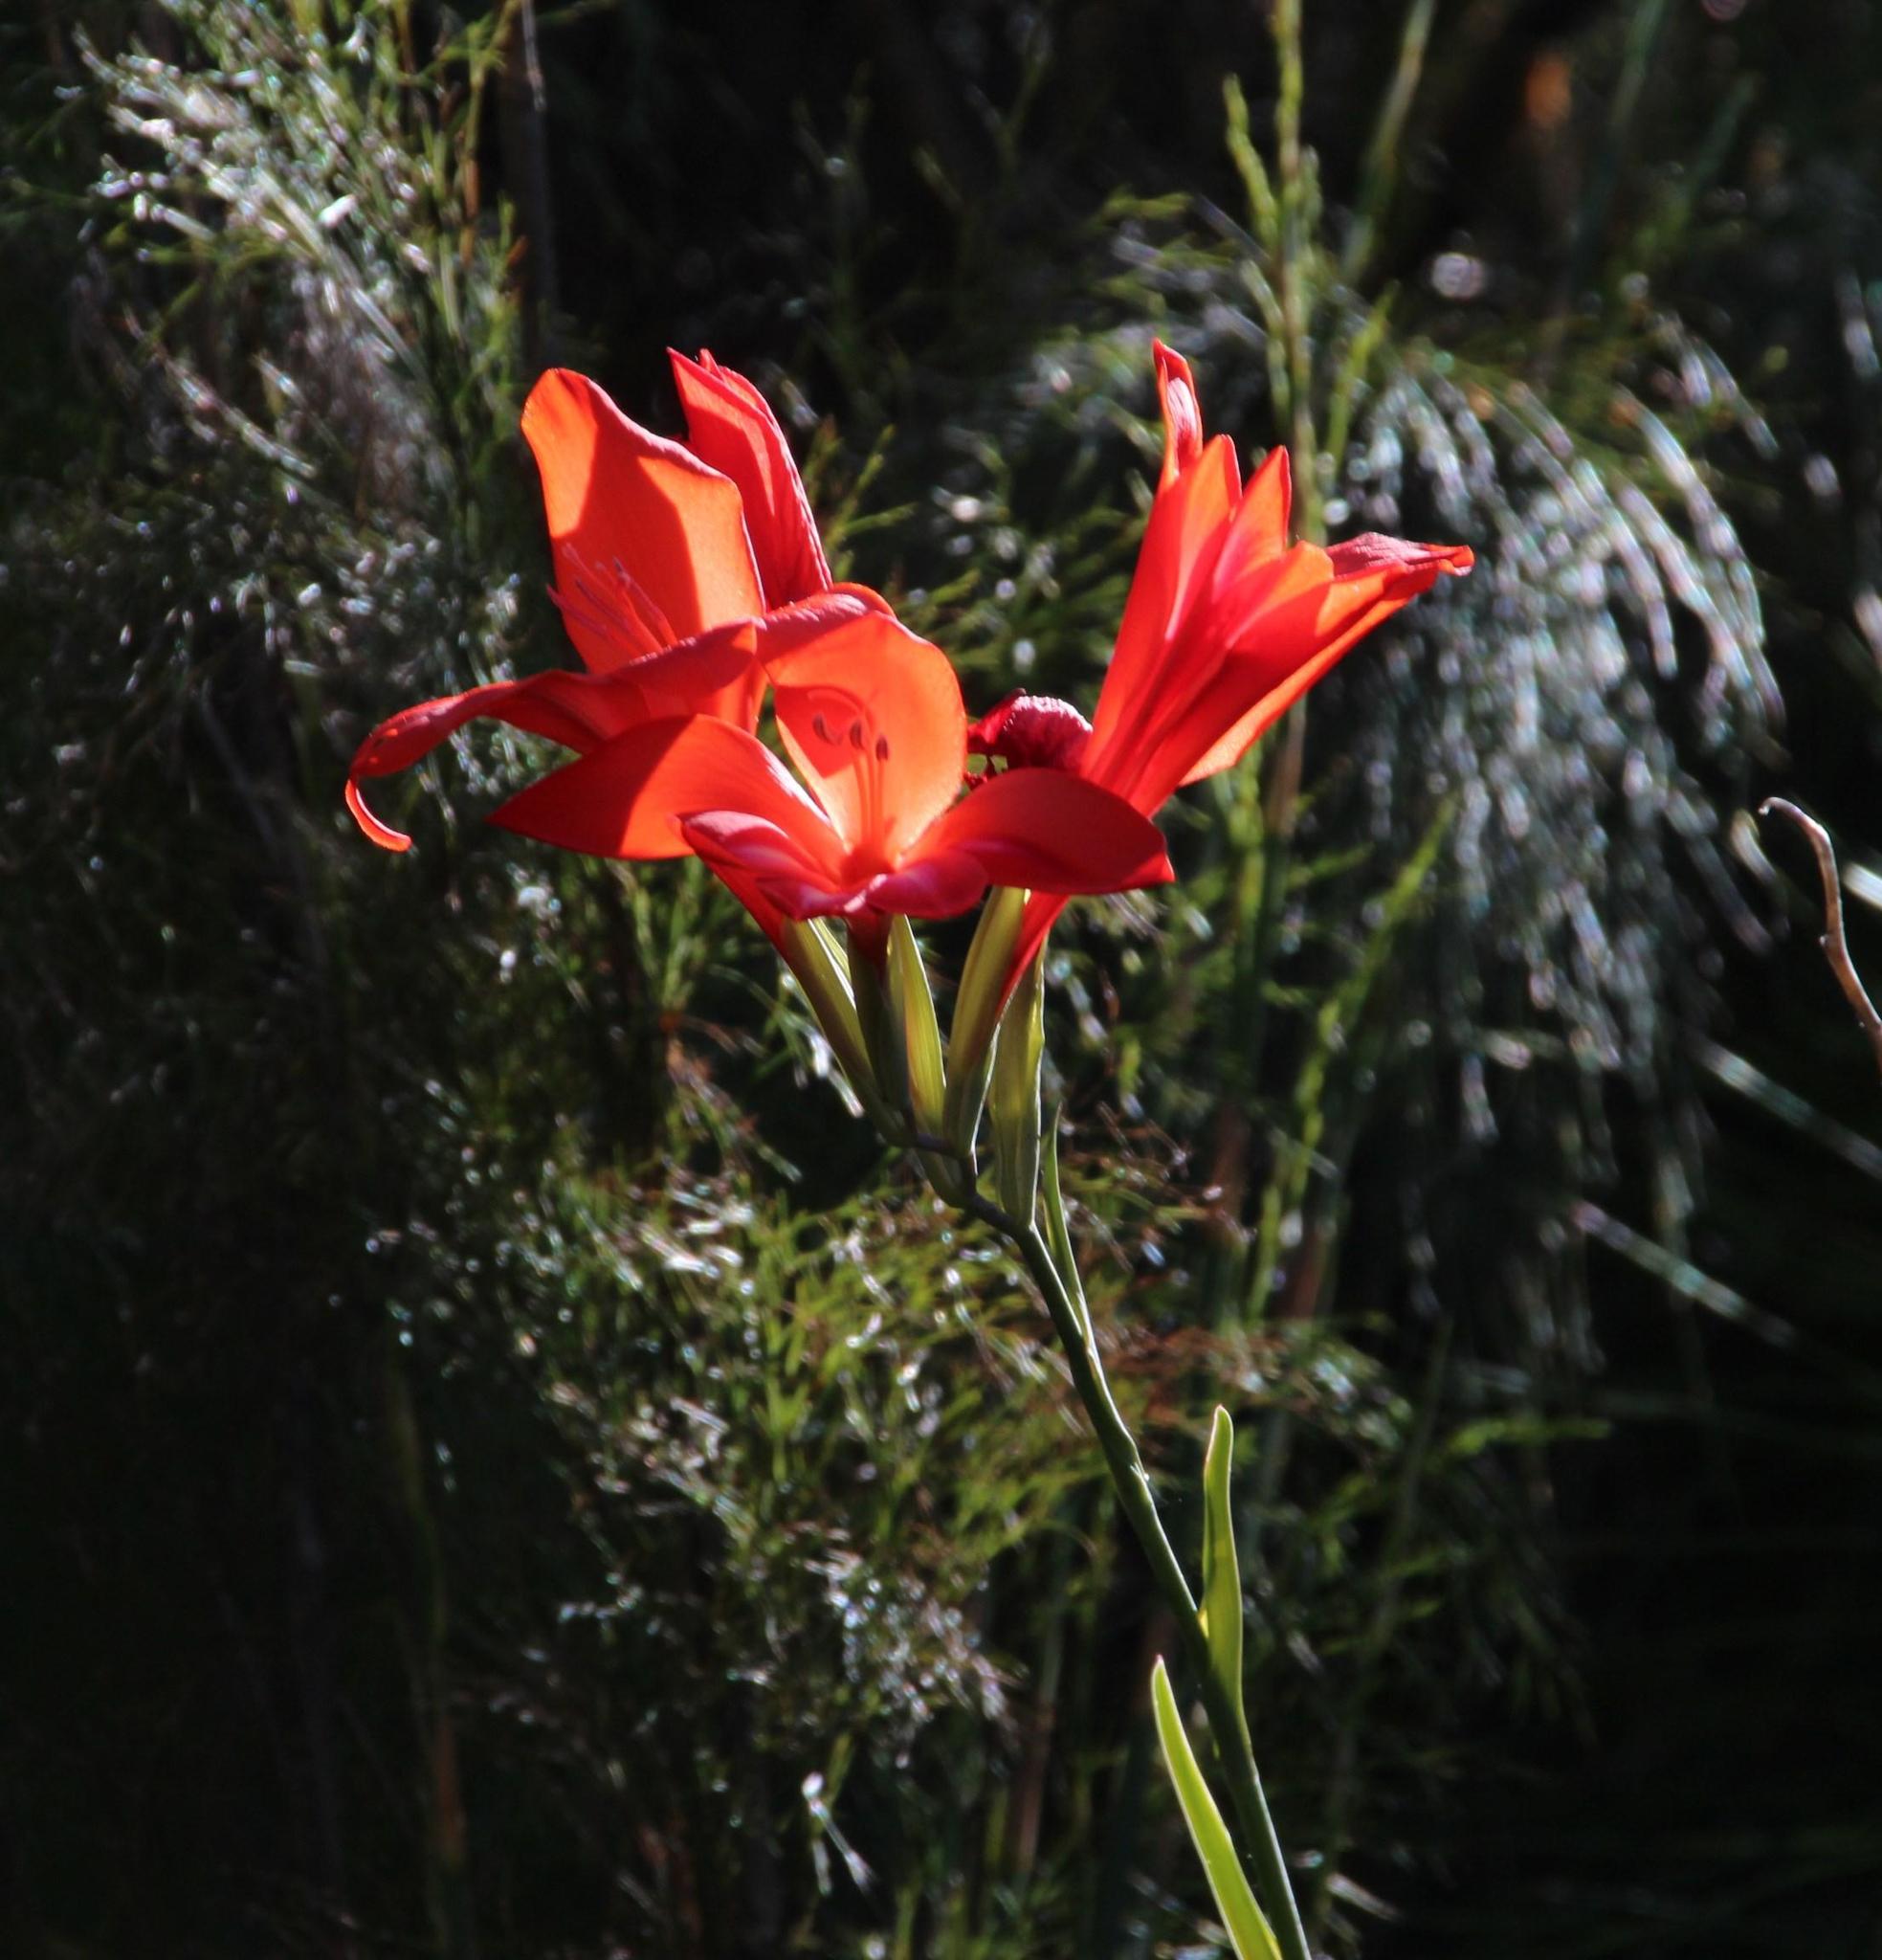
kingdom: Plantae
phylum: Tracheophyta
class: Liliopsida
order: Asparagales
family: Iridaceae
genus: Gladiolus
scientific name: Gladiolus cardinalis
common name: New year-lily
